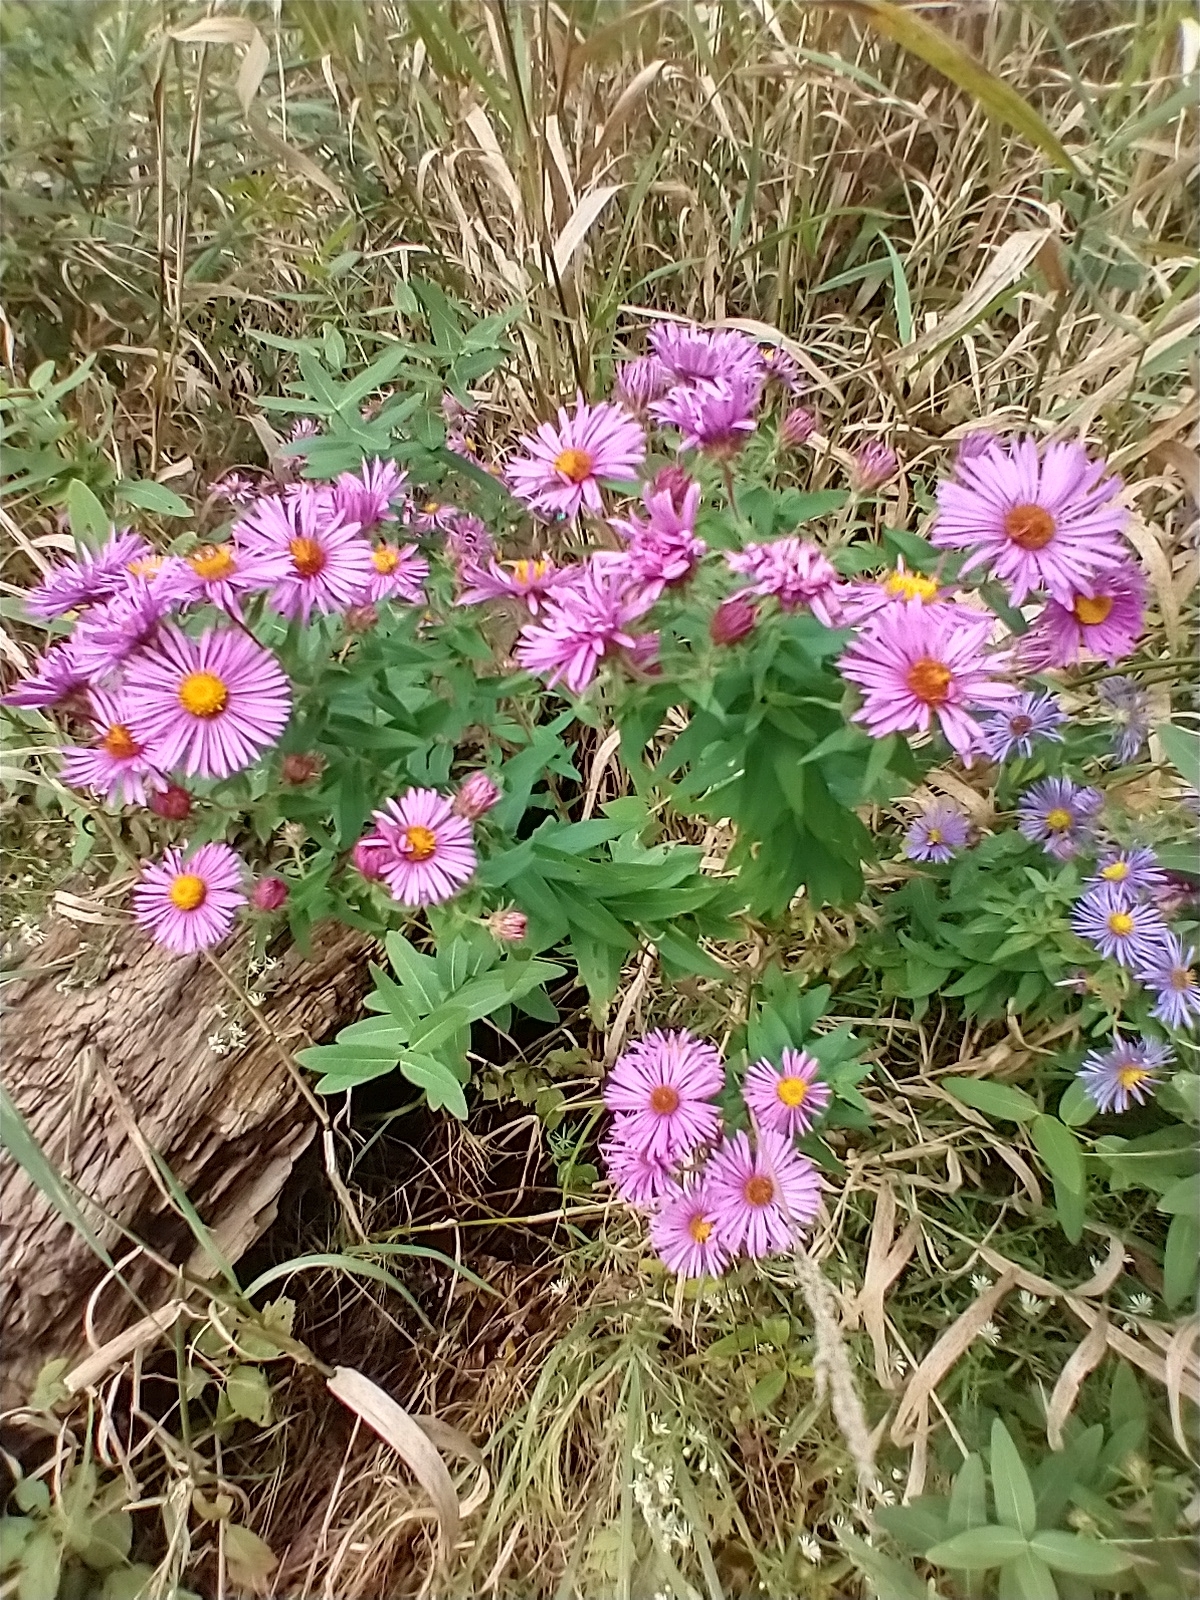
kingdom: Plantae
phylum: Tracheophyta
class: Magnoliopsida
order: Asterales
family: Asteraceae
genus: Symphyotrichum
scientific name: Symphyotrichum novae-angliae
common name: Michaelmas daisy
